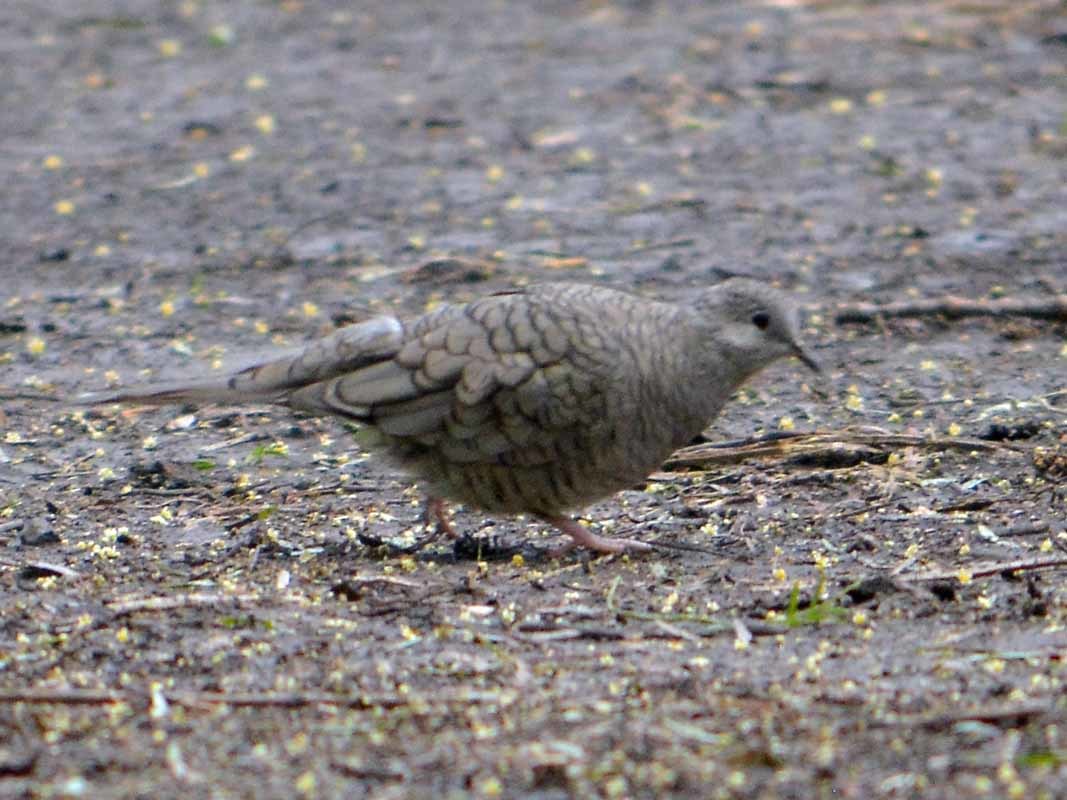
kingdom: Animalia
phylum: Chordata
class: Aves
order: Columbiformes
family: Columbidae
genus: Columbina
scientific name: Columbina inca
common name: Inca dove
